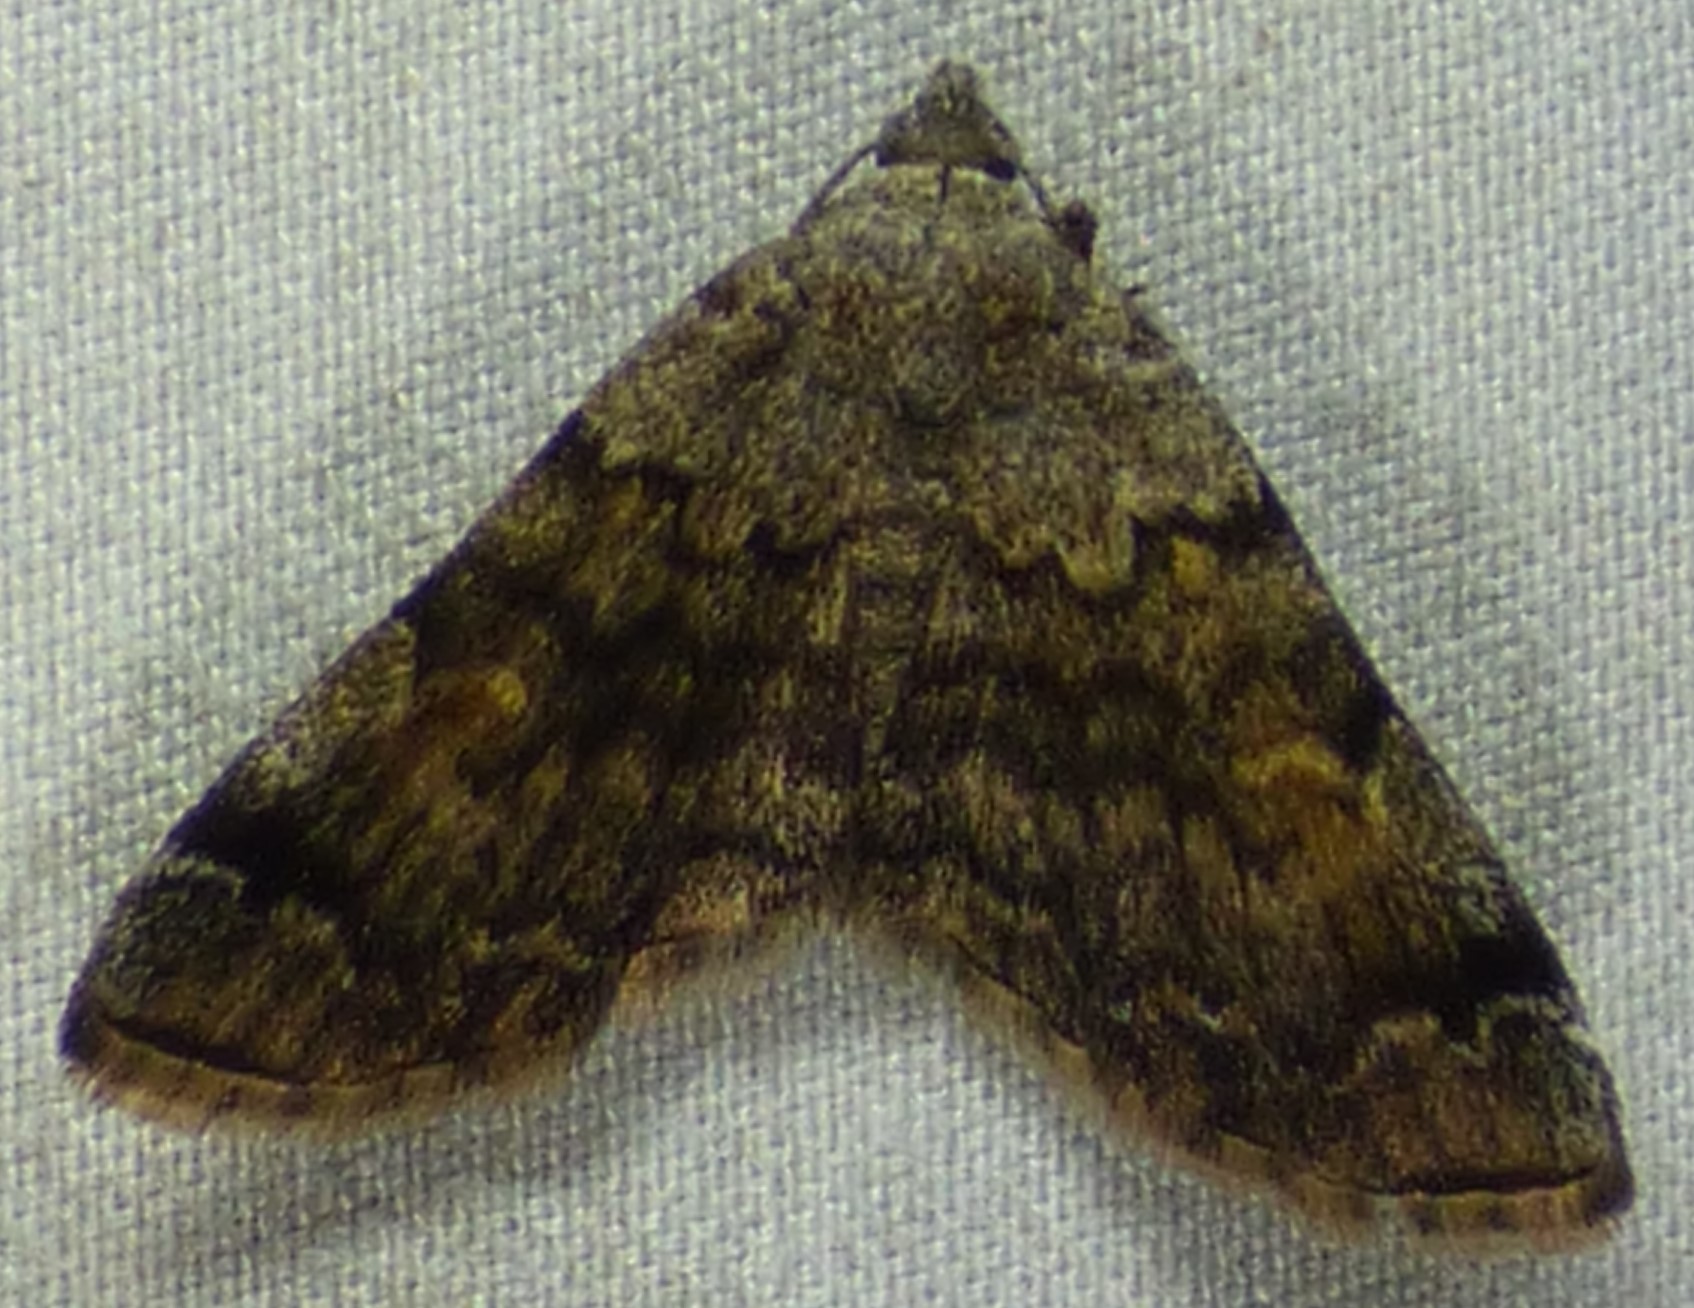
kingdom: Animalia
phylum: Arthropoda
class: Insecta
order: Lepidoptera
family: Erebidae
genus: Idia
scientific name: Idia americalis
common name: American idia moth
